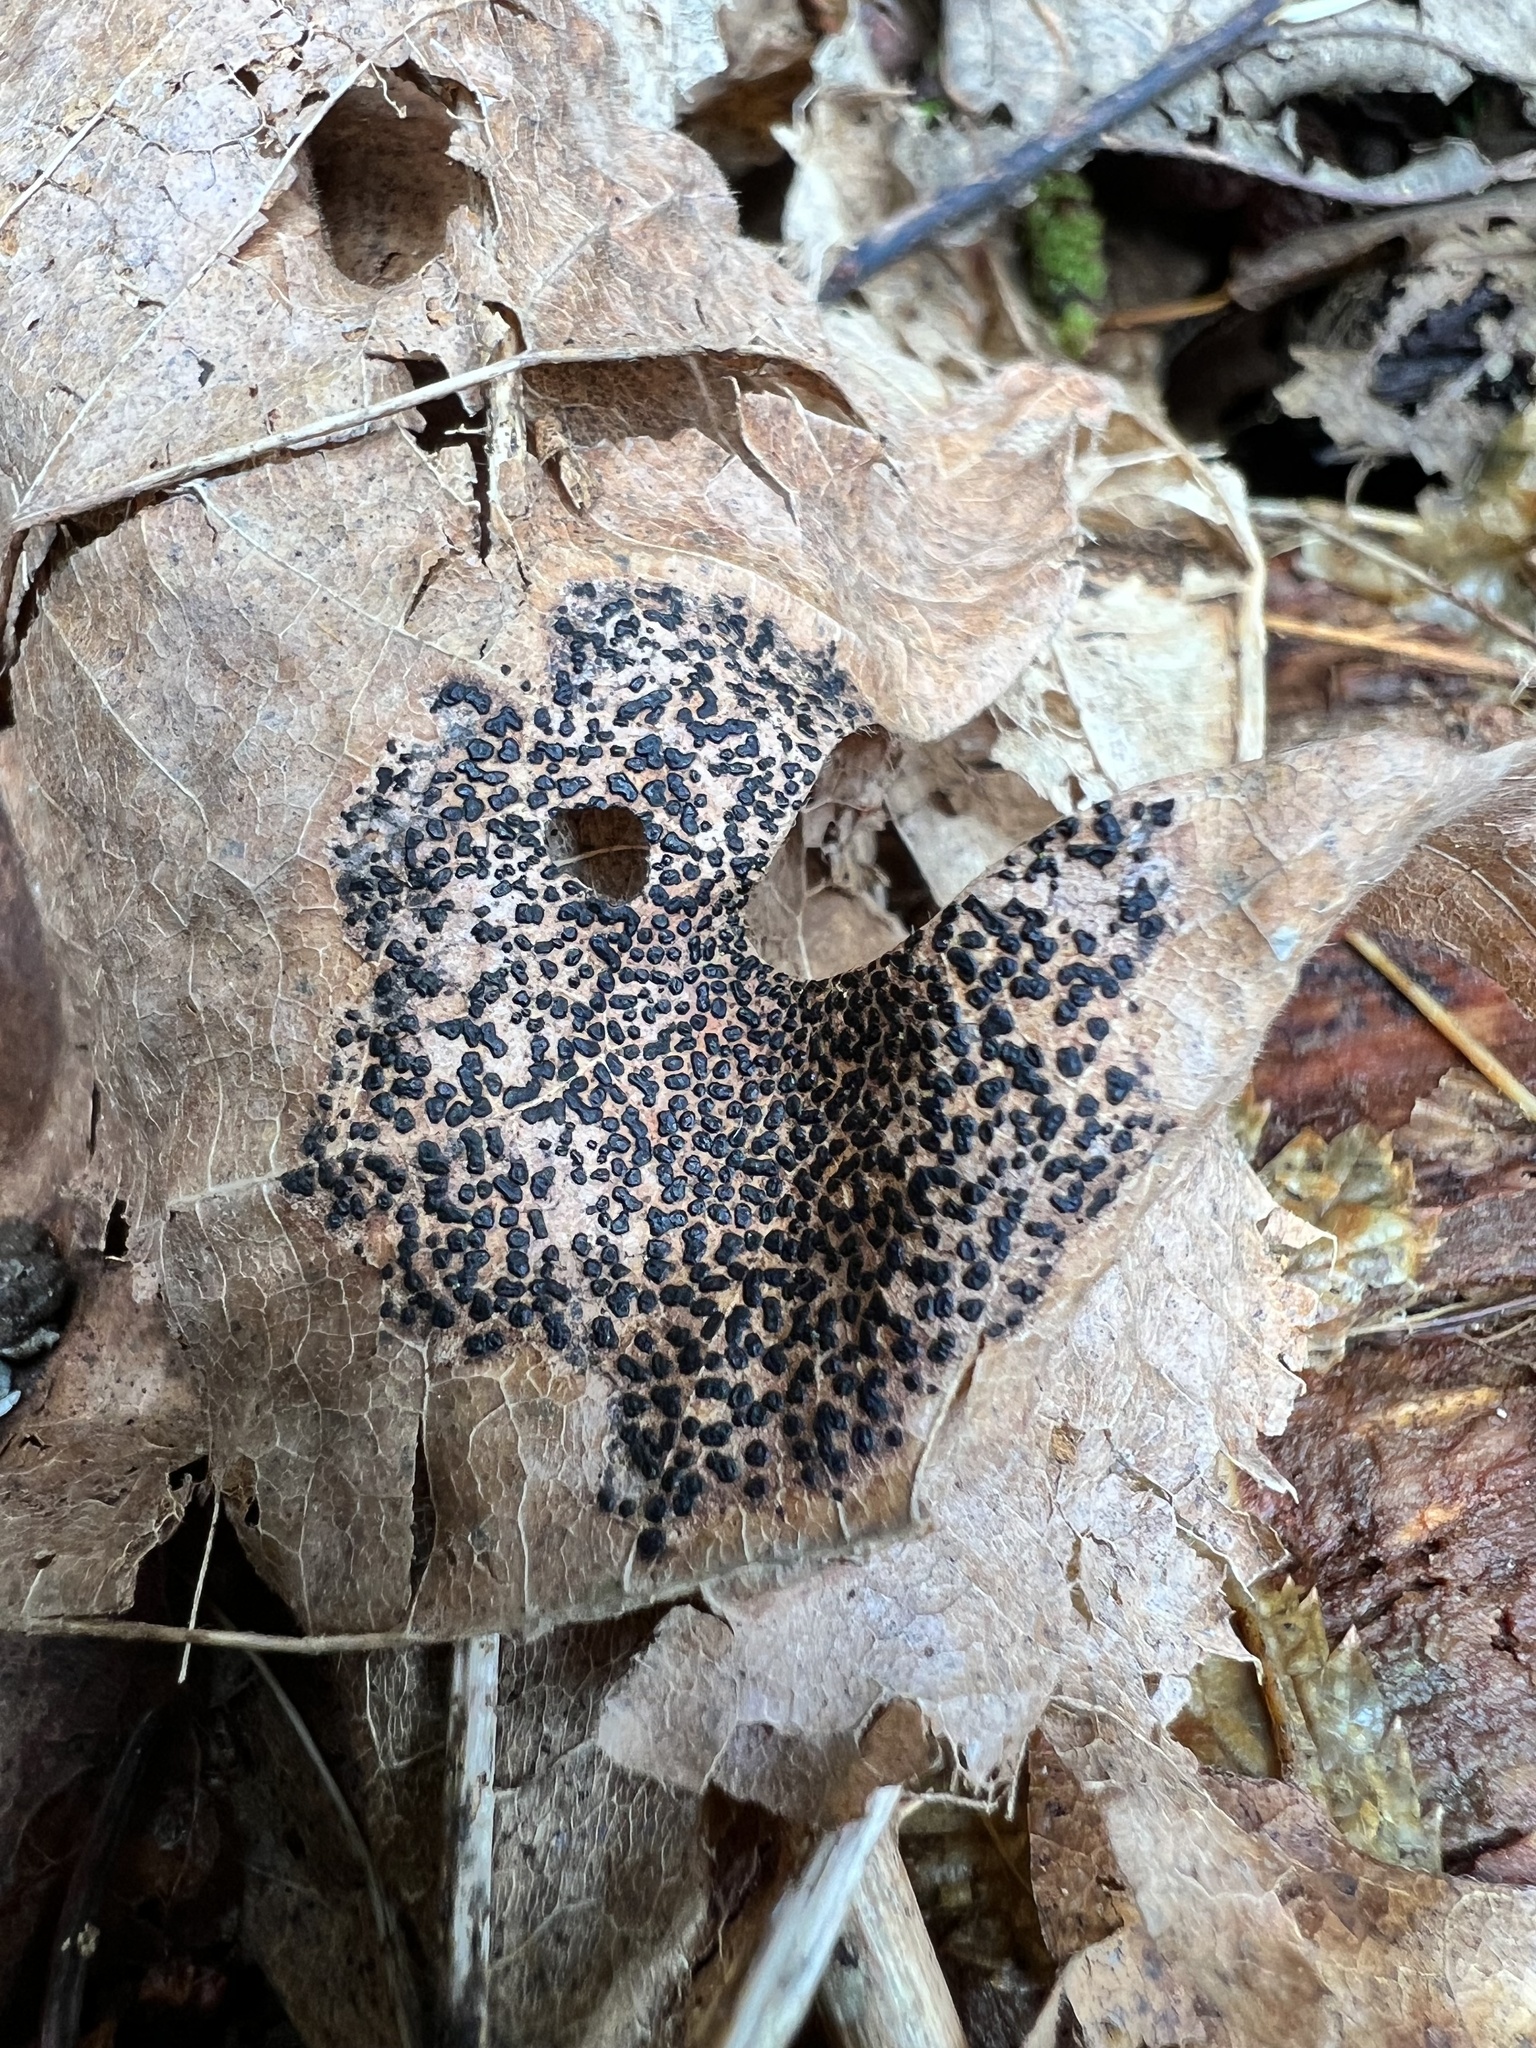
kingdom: Fungi
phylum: Ascomycota
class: Leotiomycetes
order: Rhytismatales
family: Rhytismataceae
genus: Rhytisma
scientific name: Rhytisma punctatum
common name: Speckled tar spot
